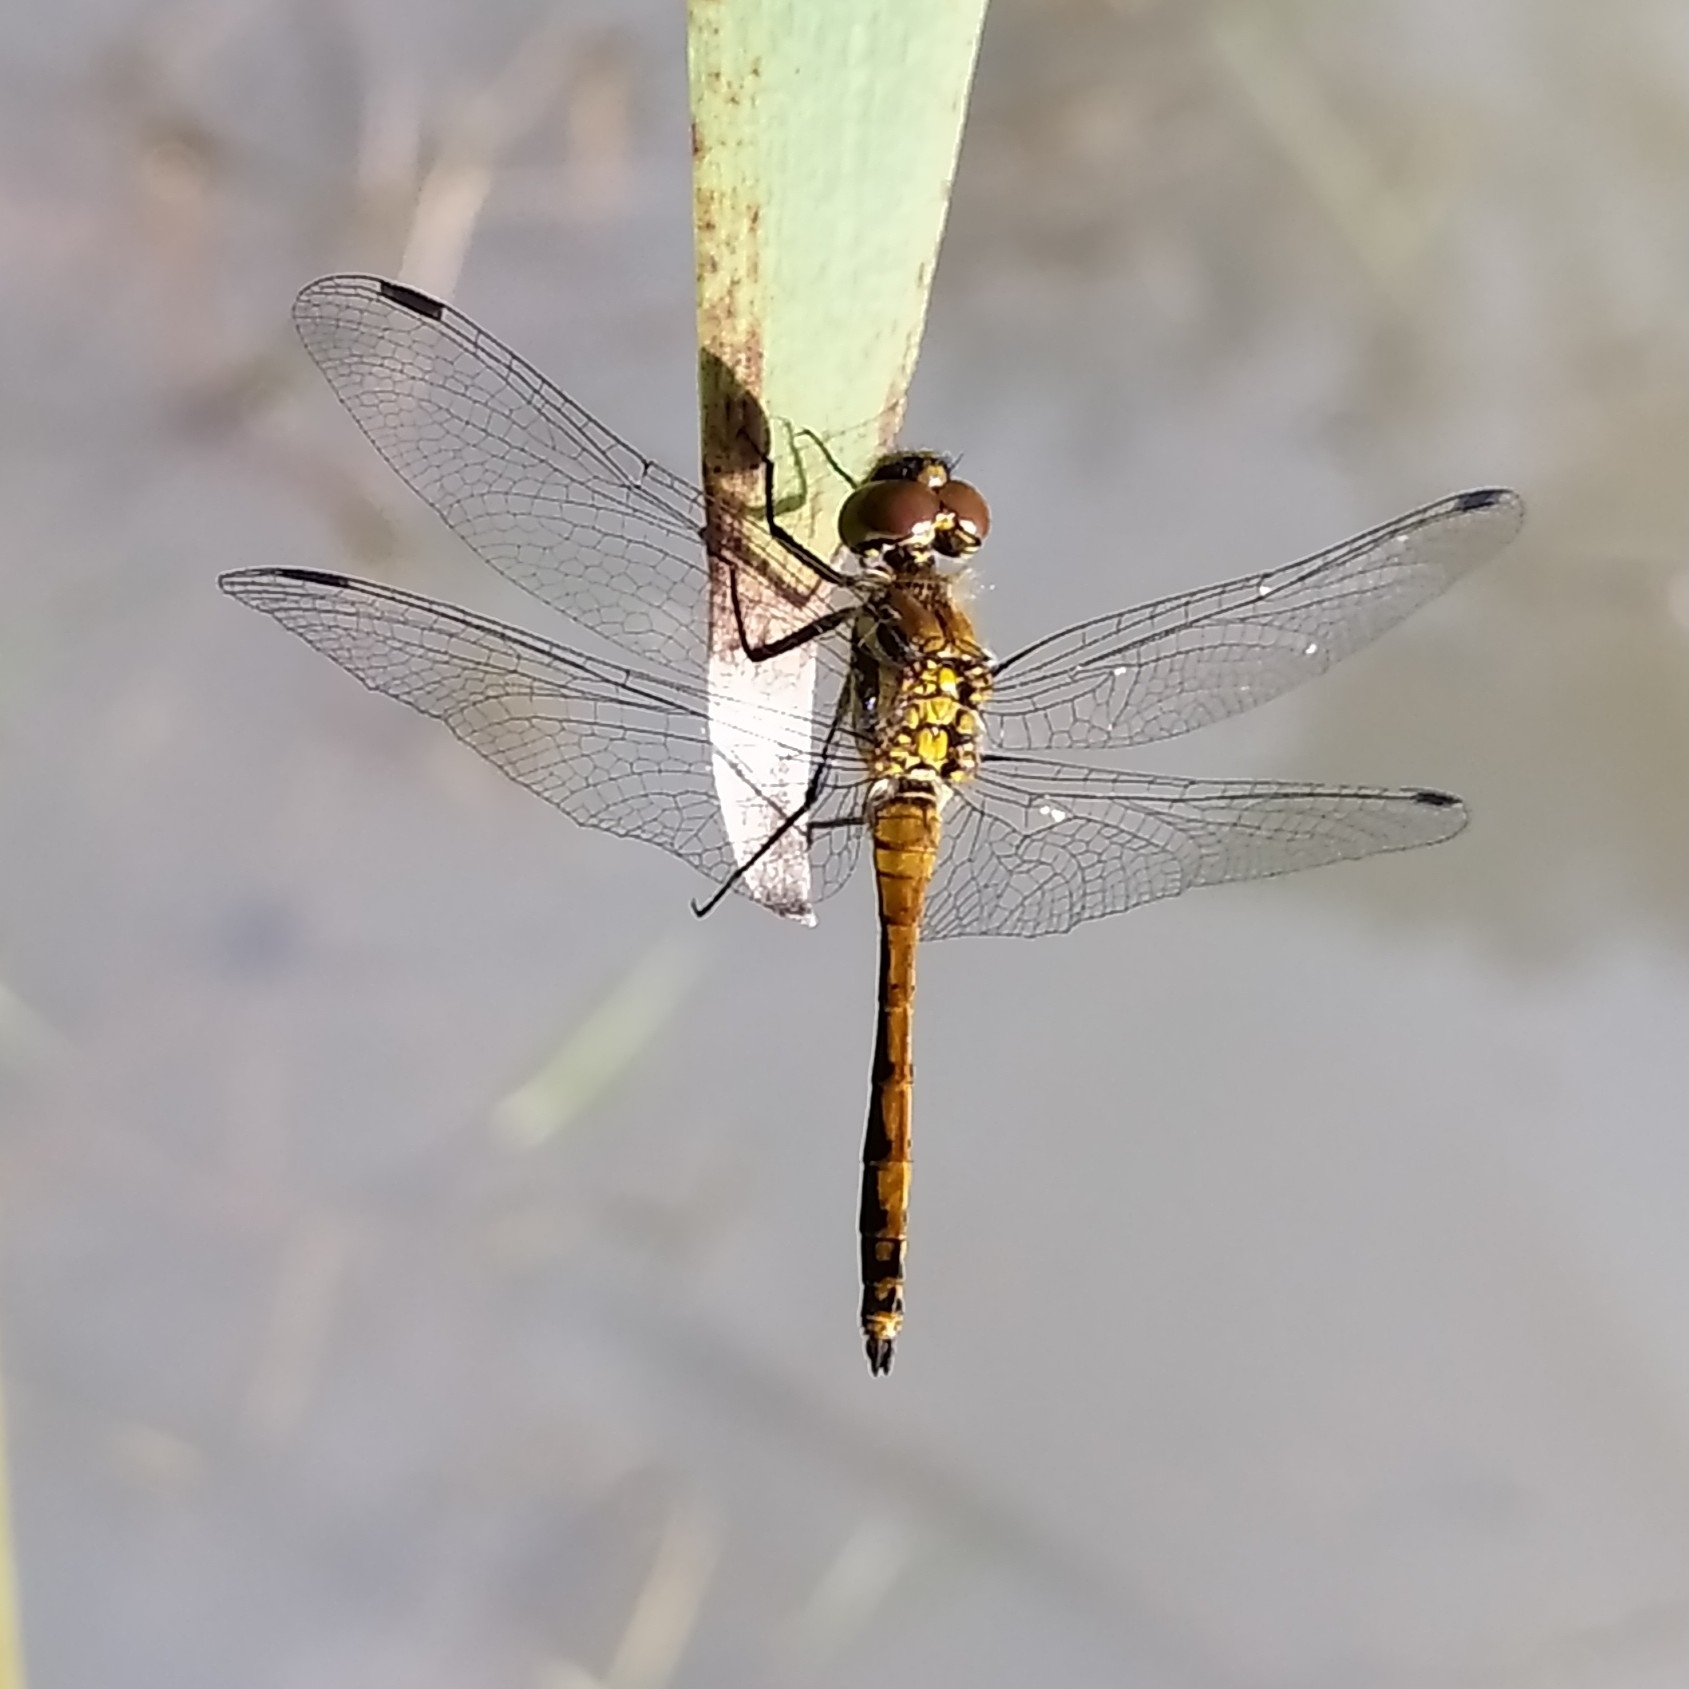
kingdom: Animalia
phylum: Arthropoda
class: Insecta
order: Odonata
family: Libellulidae
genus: Sympetrum
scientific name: Sympetrum danae
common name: Black darter
